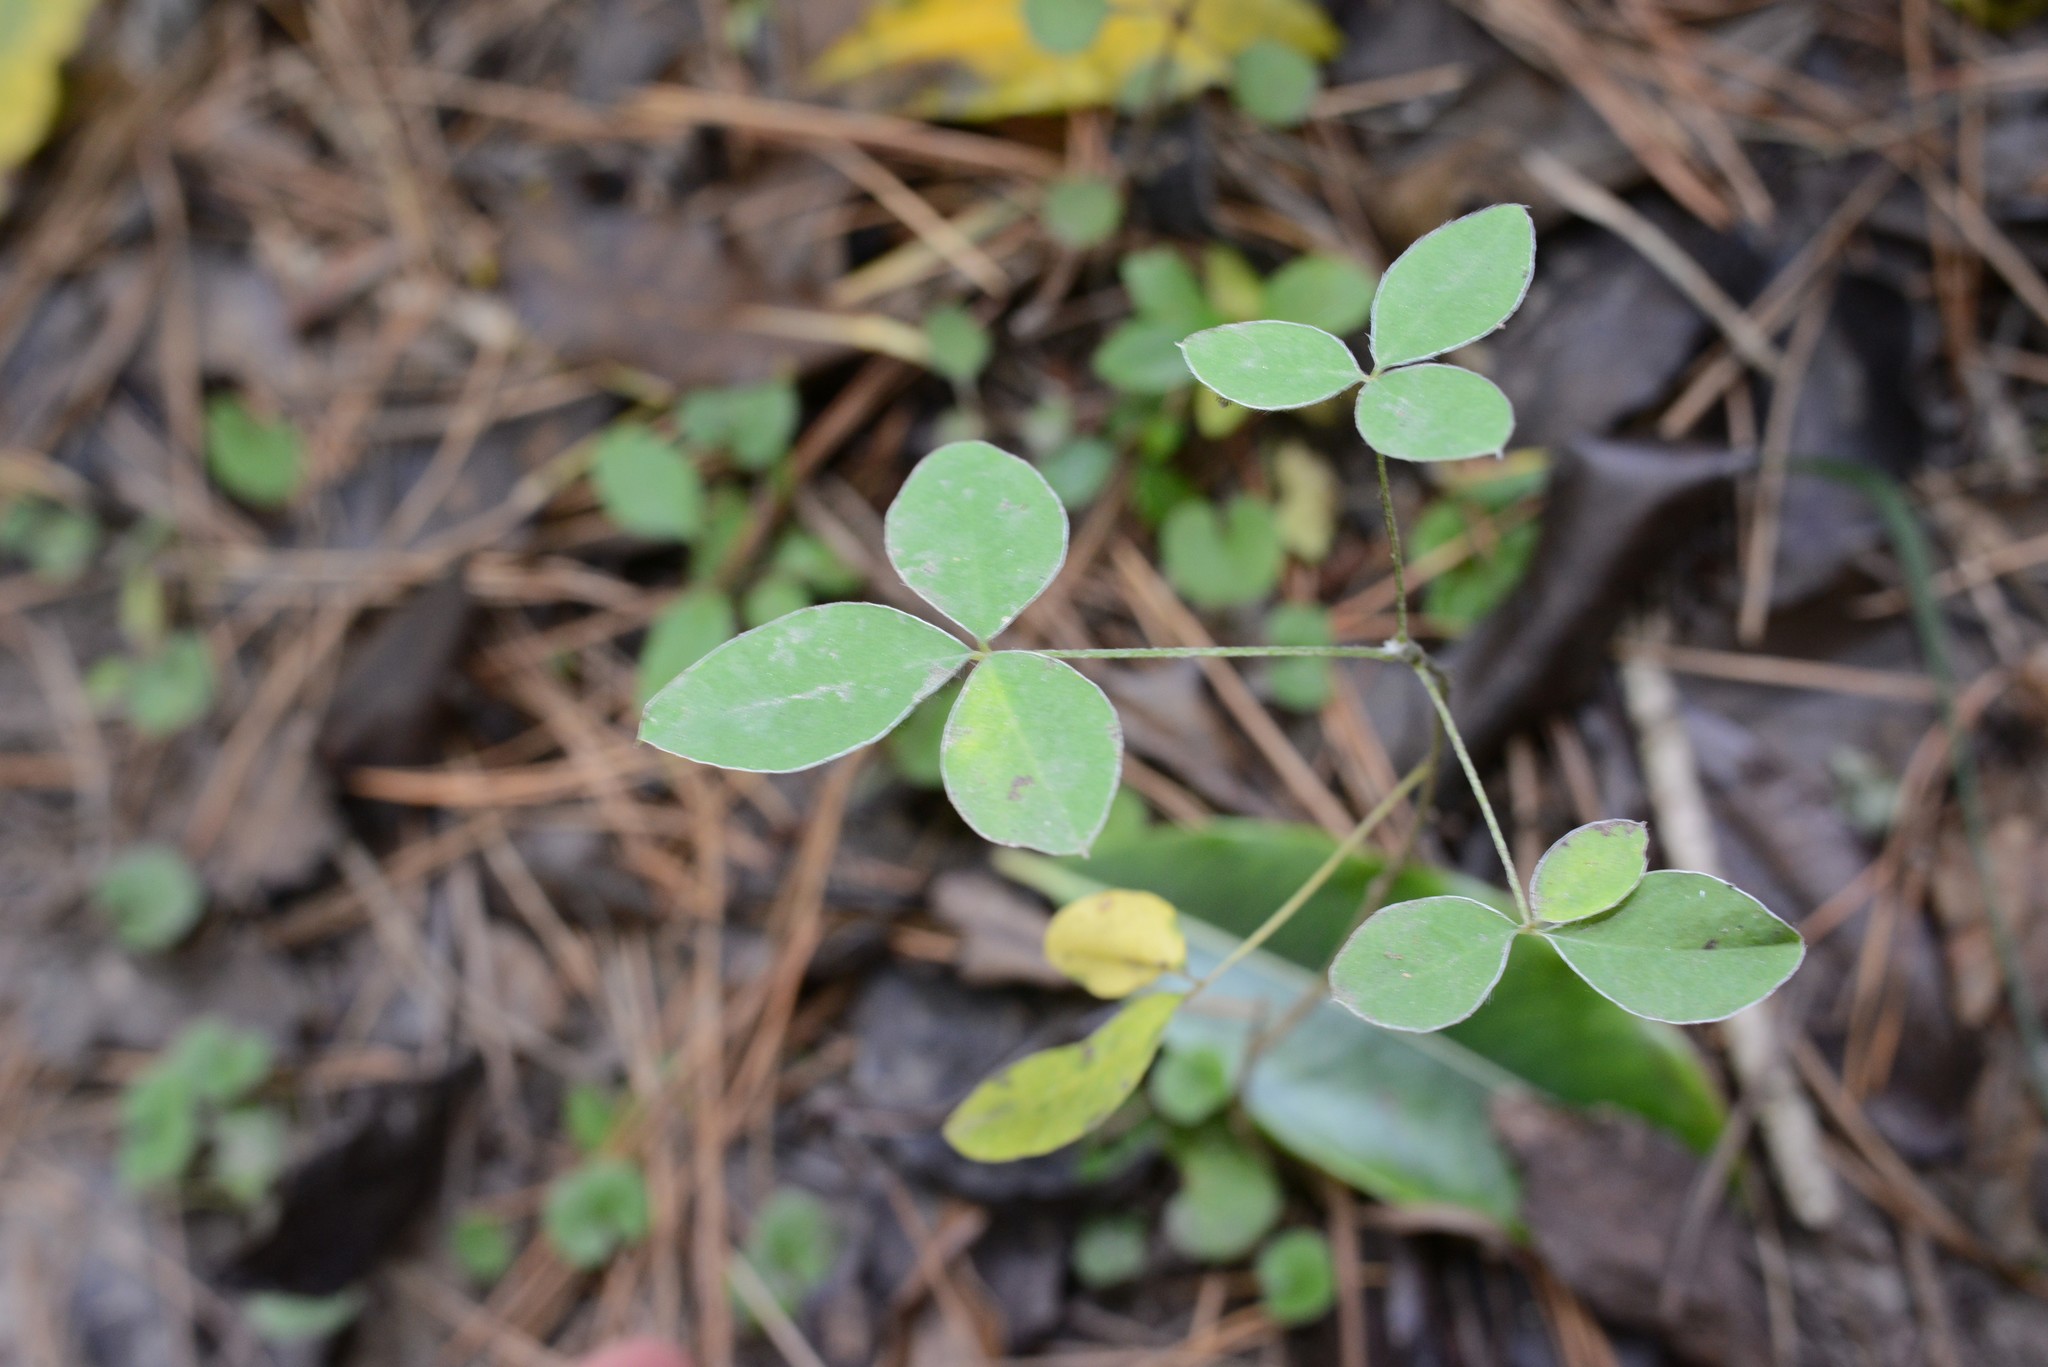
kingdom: Plantae
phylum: Tracheophyta
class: Magnoliopsida
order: Fabales
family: Fabaceae
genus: Laburnum
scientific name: Laburnum anagyroides
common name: Laburnum
